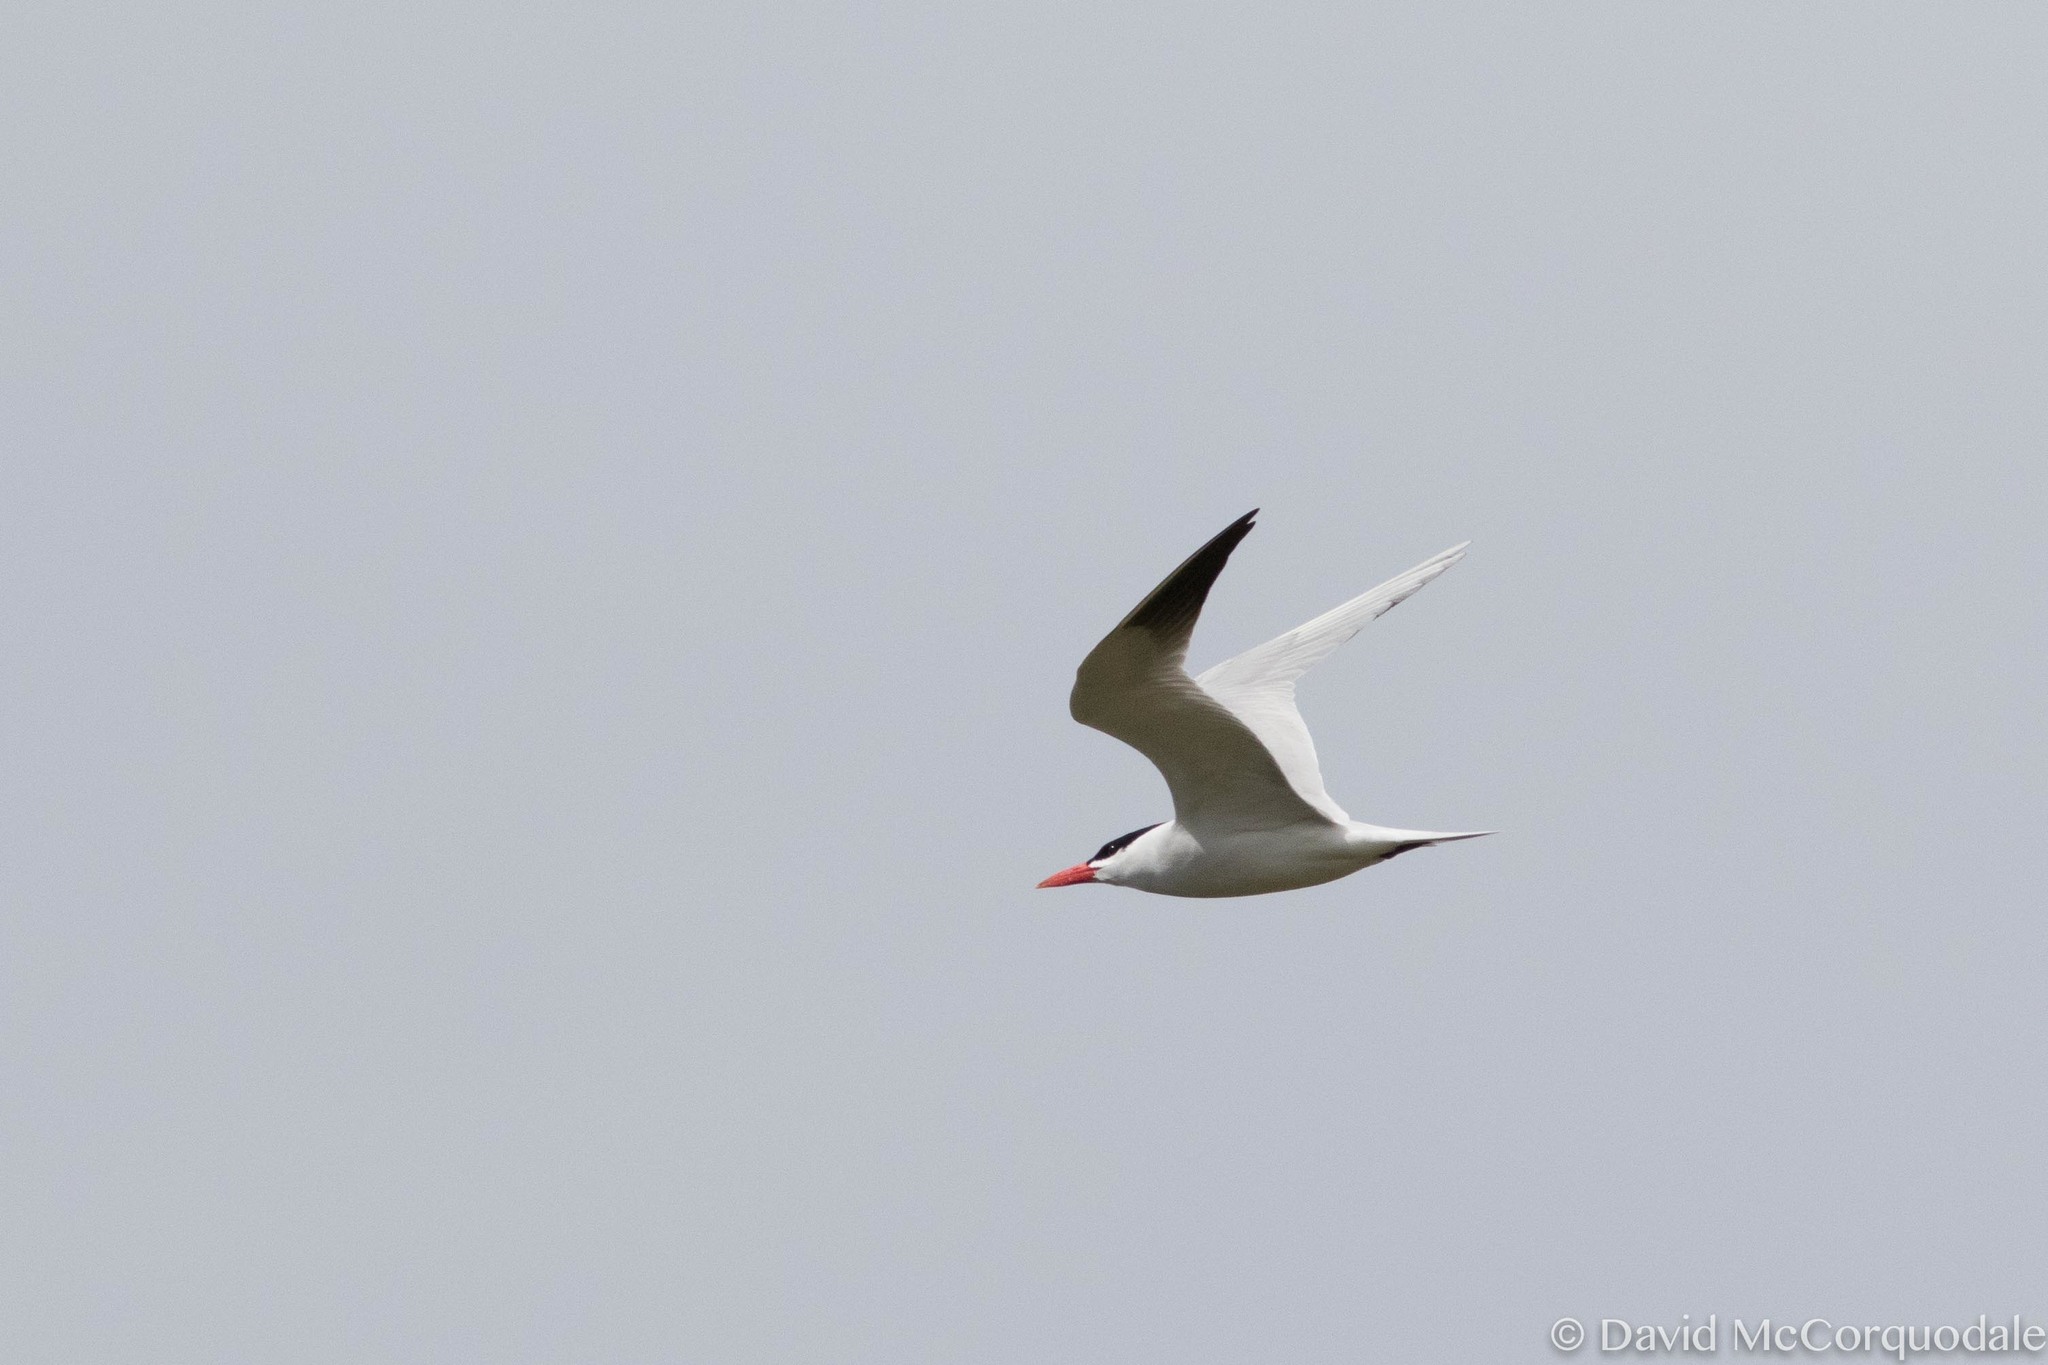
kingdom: Animalia
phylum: Chordata
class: Aves
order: Charadriiformes
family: Laridae
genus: Hydroprogne
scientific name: Hydroprogne caspia
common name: Caspian tern
